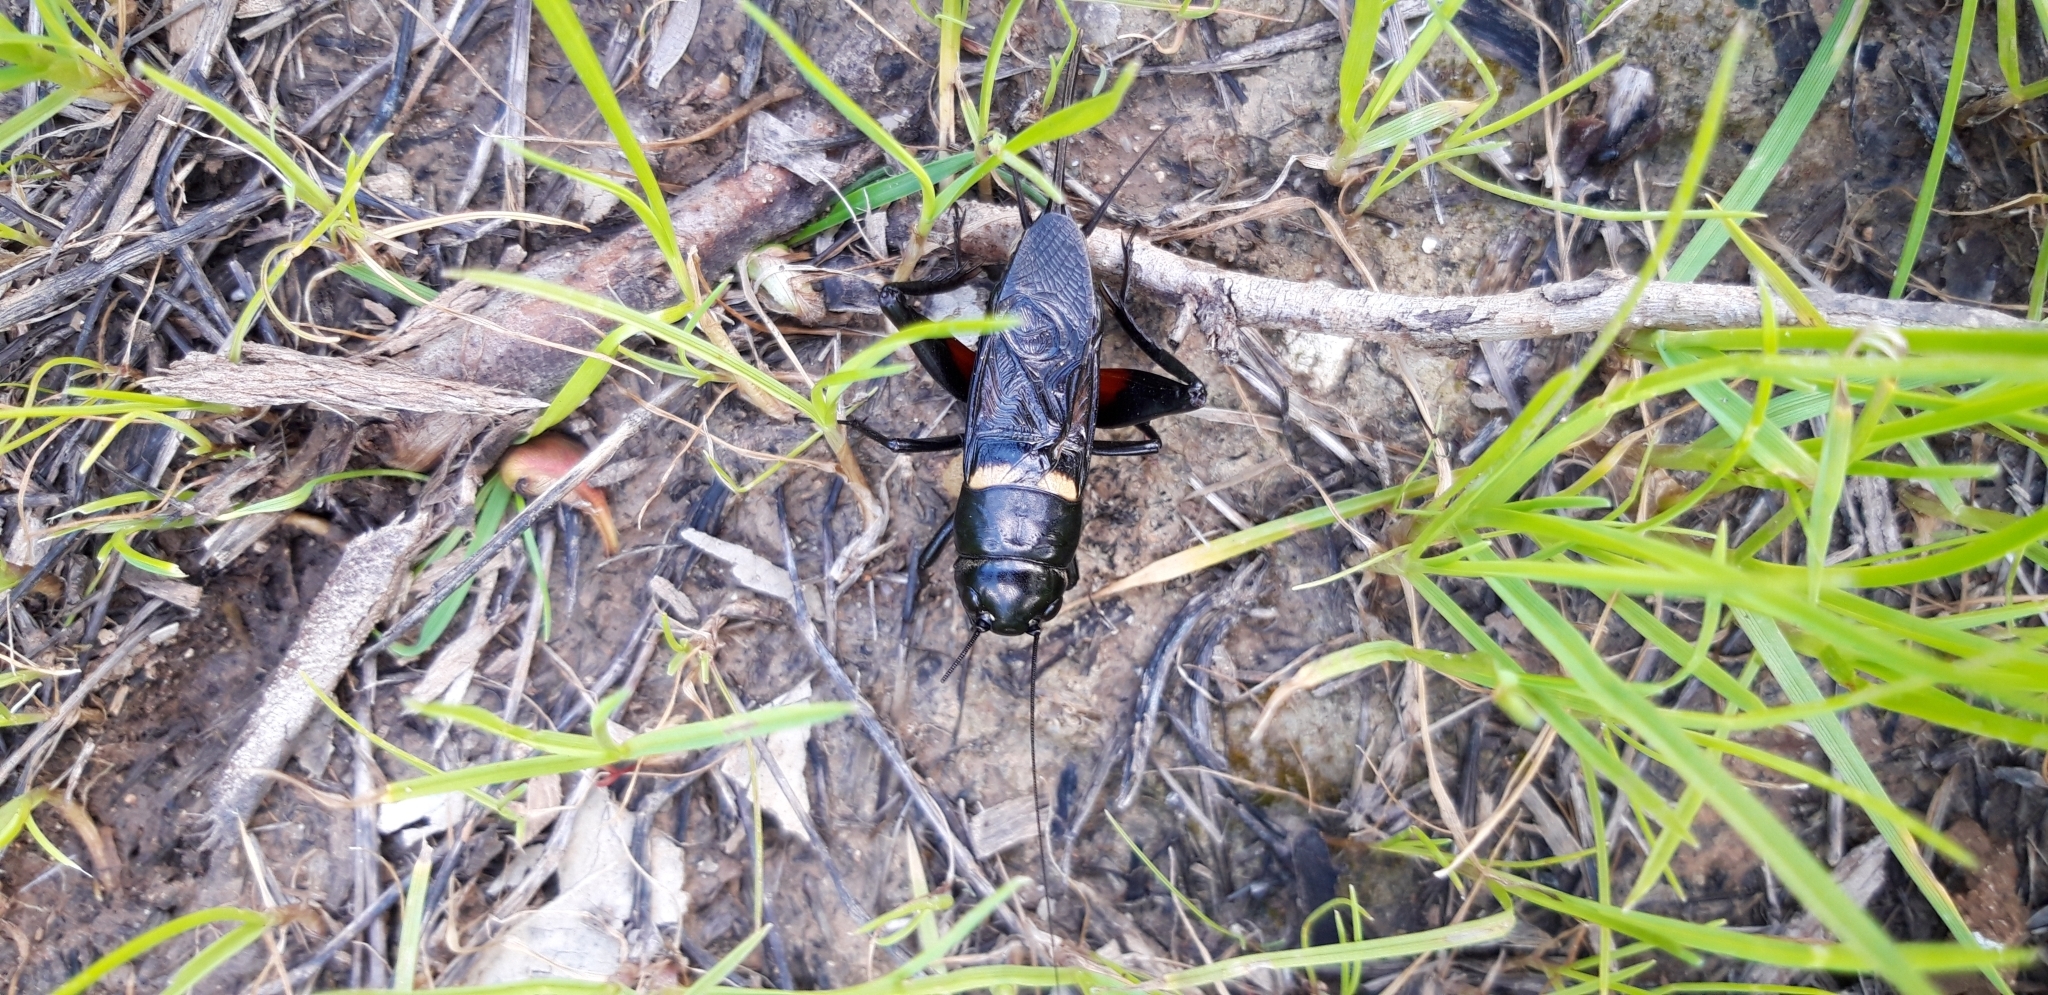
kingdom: Animalia
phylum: Arthropoda
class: Insecta
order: Orthoptera
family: Gryllidae
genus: Gryllus
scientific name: Gryllus bimaculatus
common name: Two-spotted cricket
